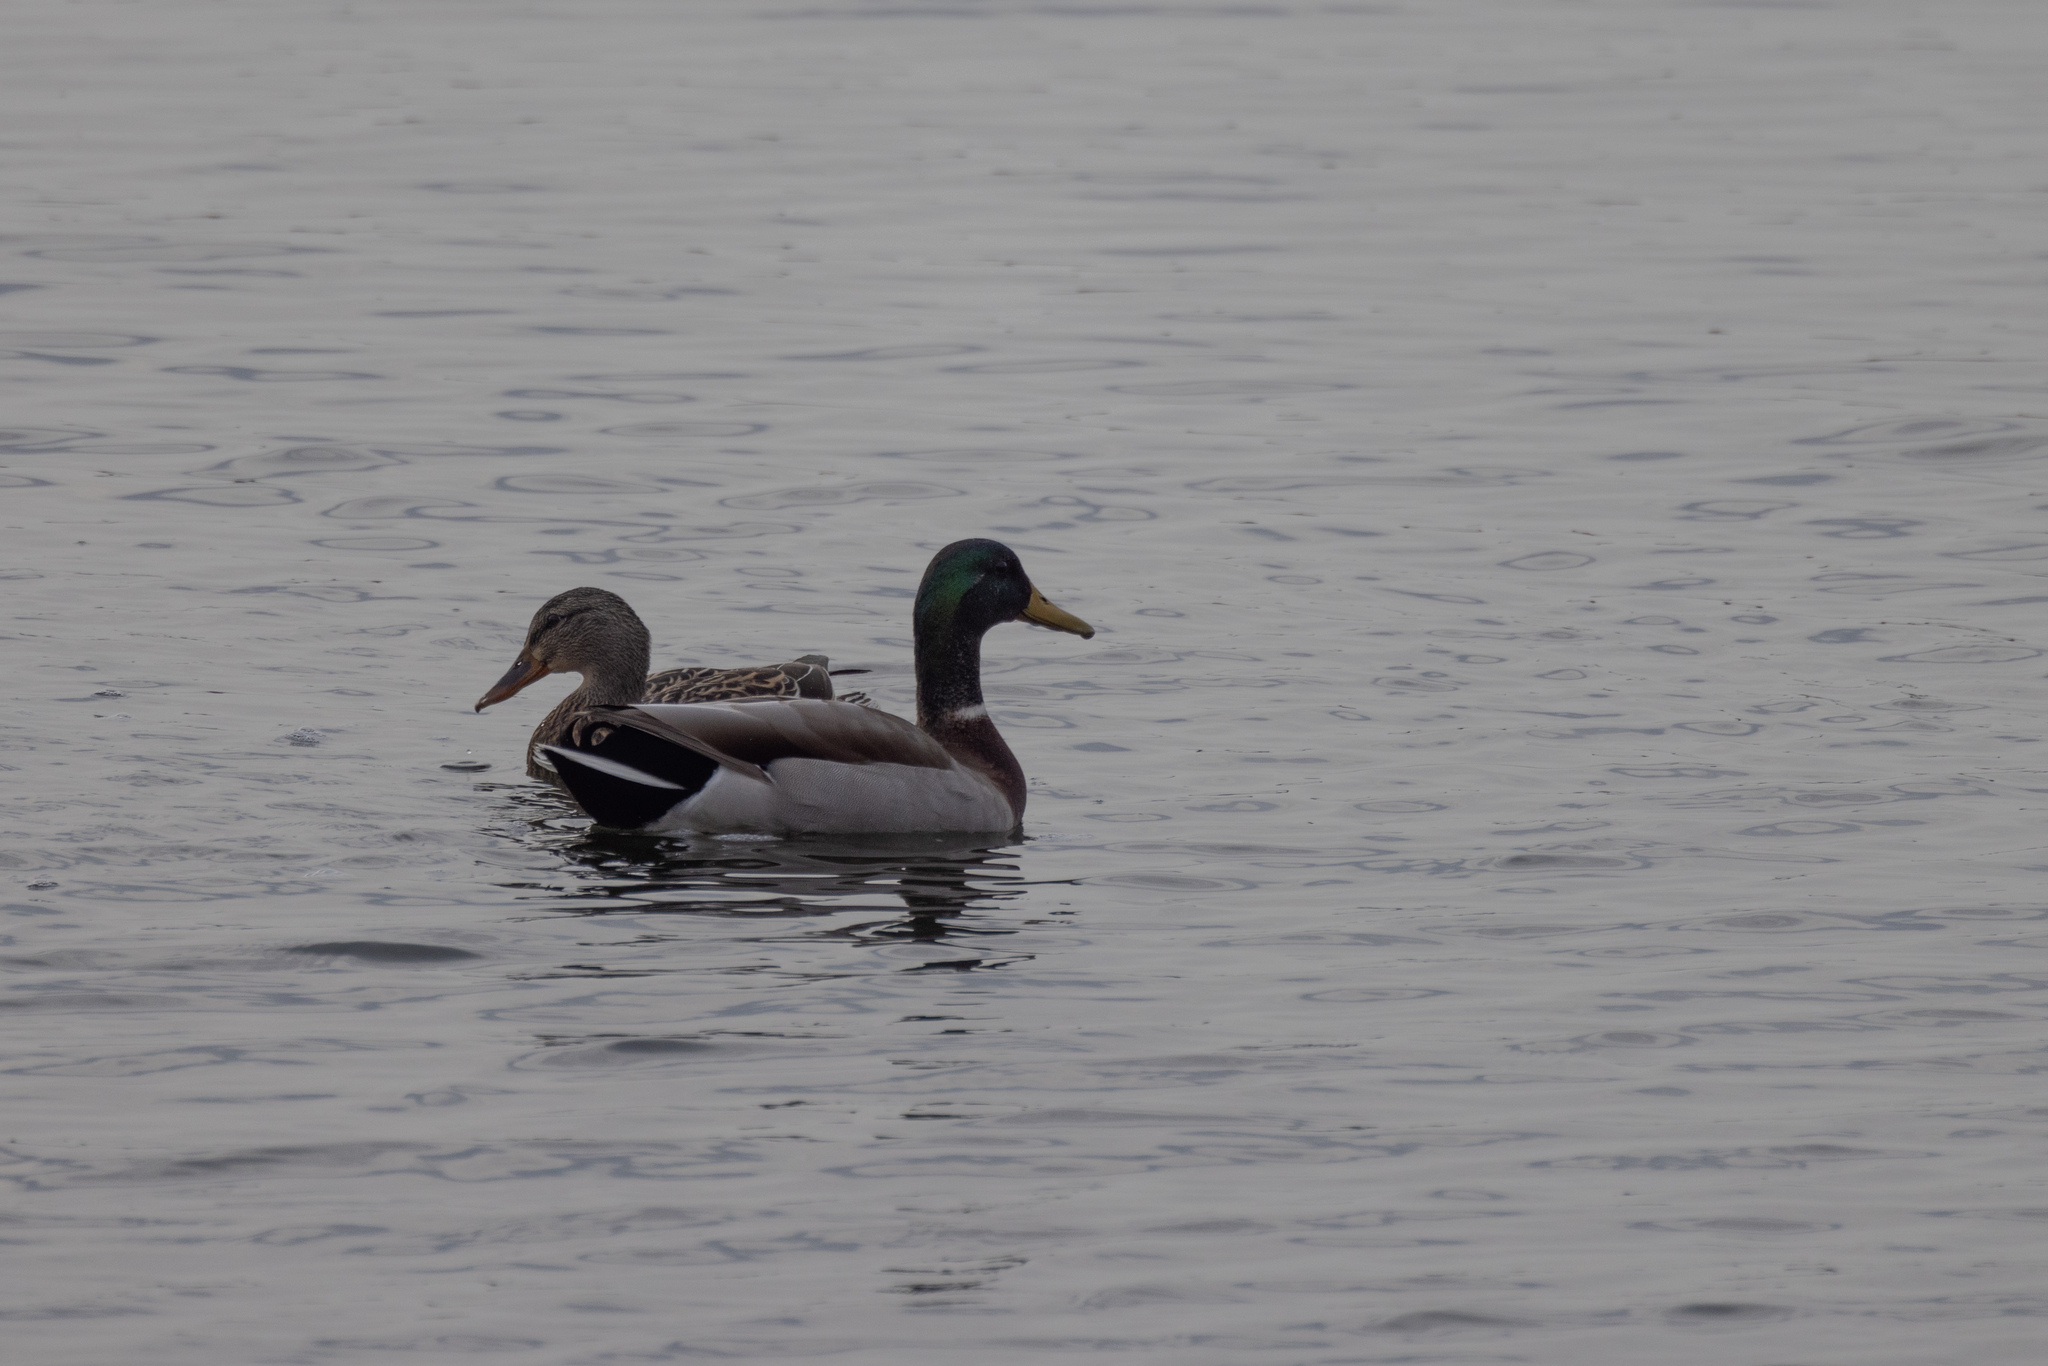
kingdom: Animalia
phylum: Chordata
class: Aves
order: Anseriformes
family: Anatidae
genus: Anas
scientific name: Anas platyrhynchos
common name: Mallard
